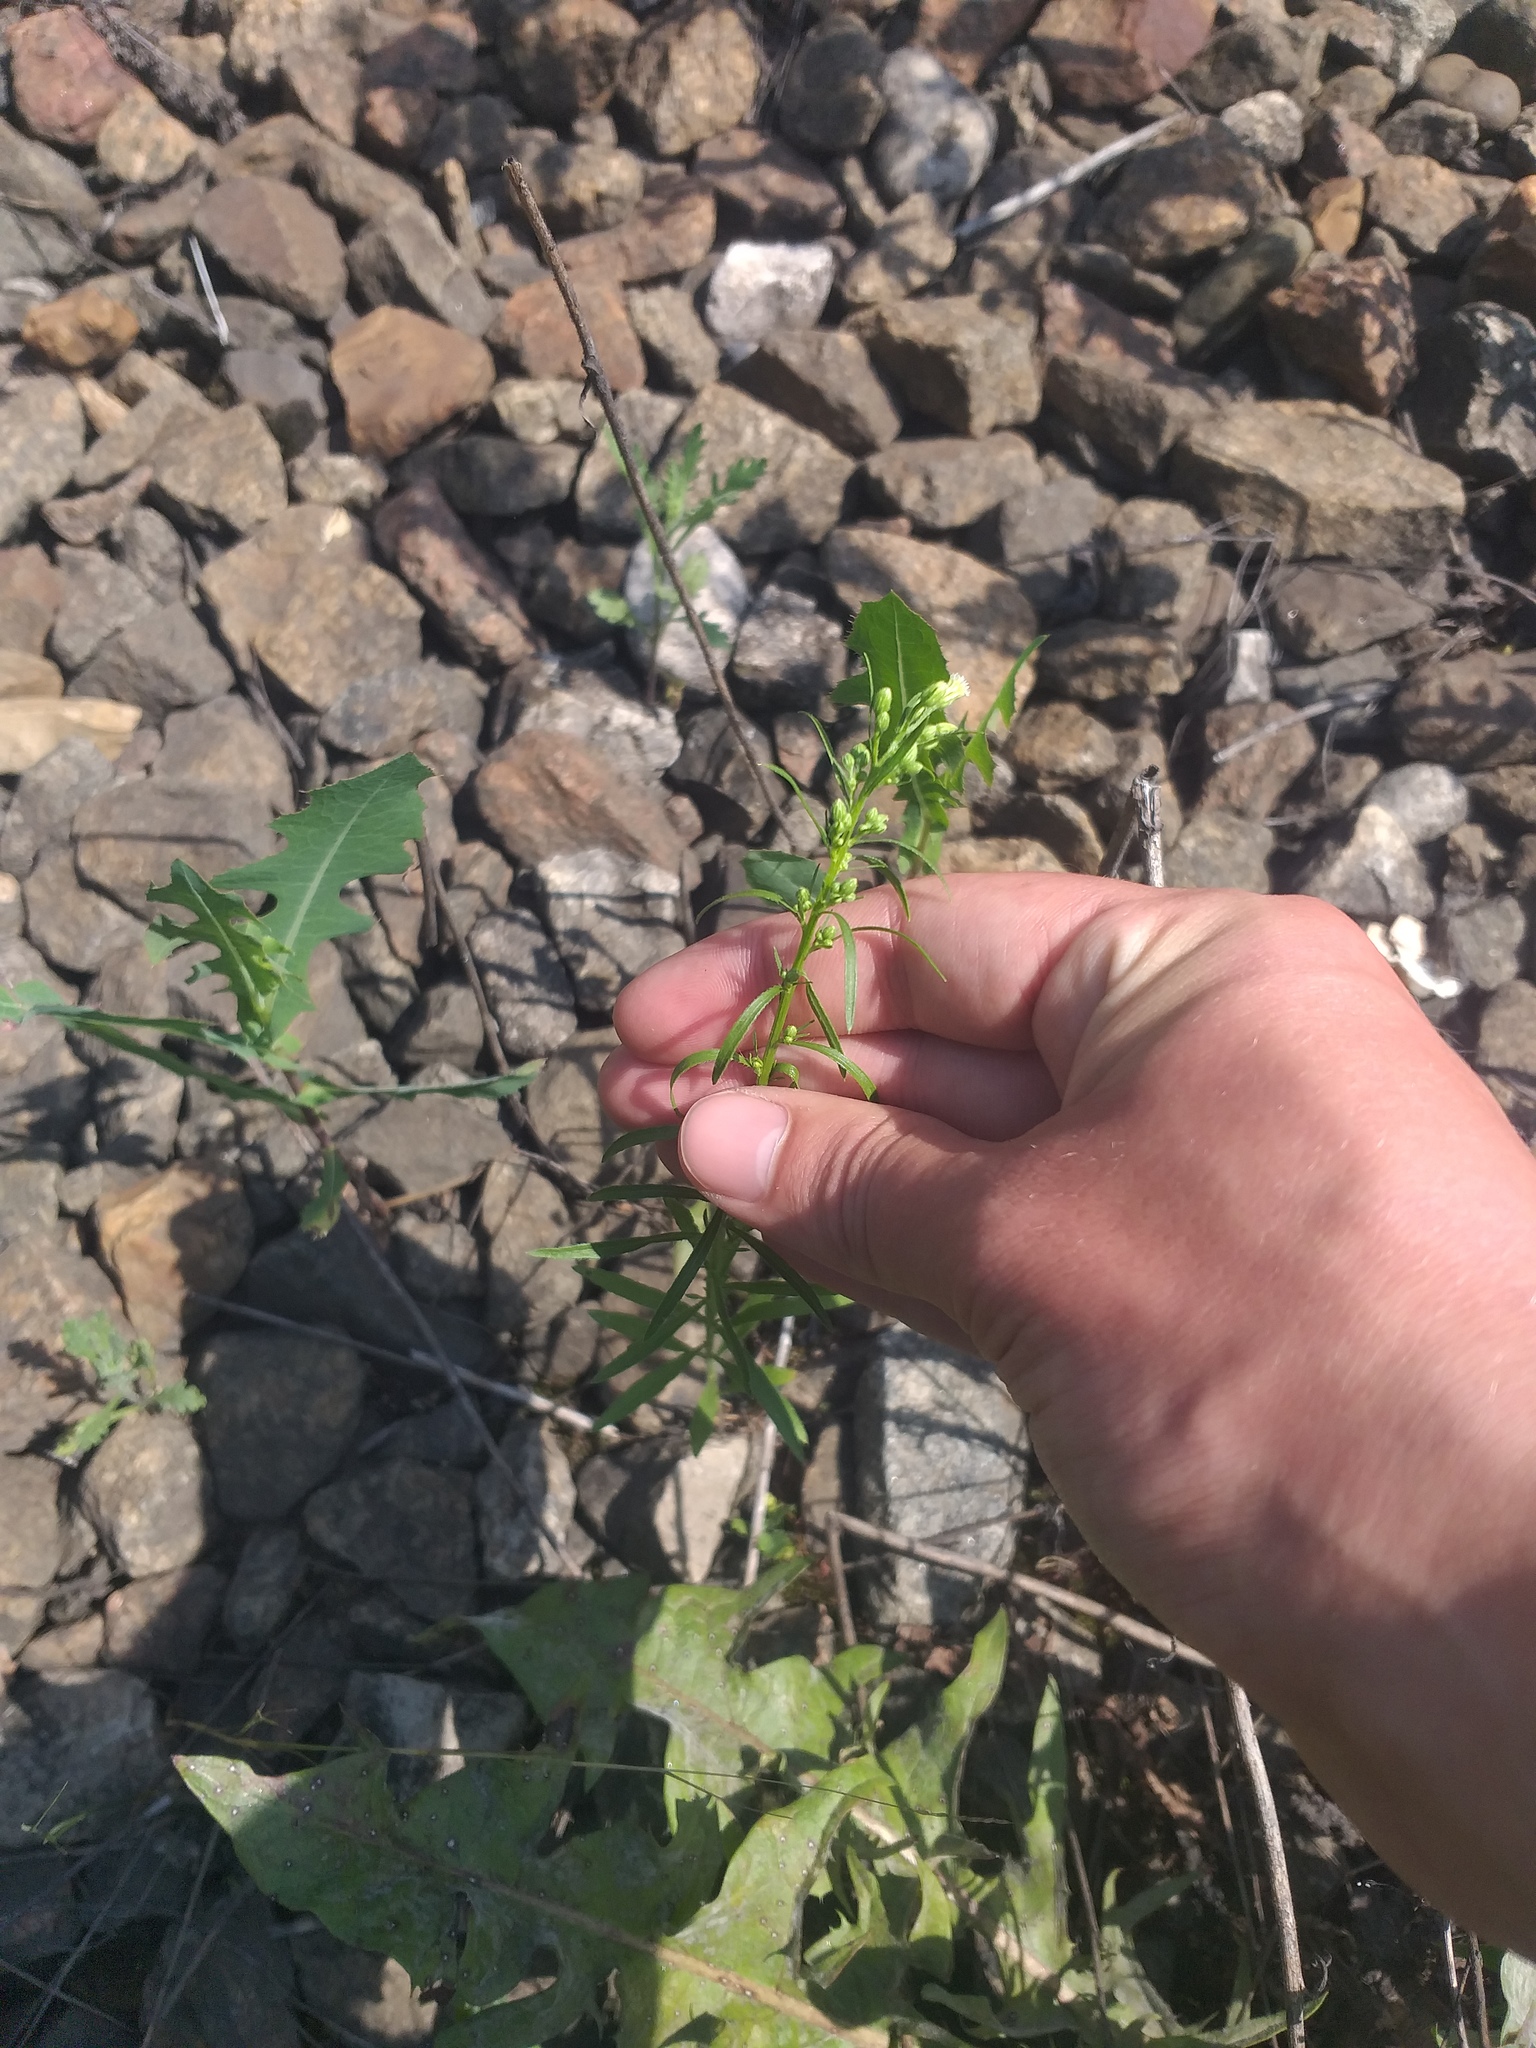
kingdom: Plantae
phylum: Tracheophyta
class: Magnoliopsida
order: Asterales
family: Asteraceae
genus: Erigeron
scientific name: Erigeron canadensis
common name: Canadian fleabane
